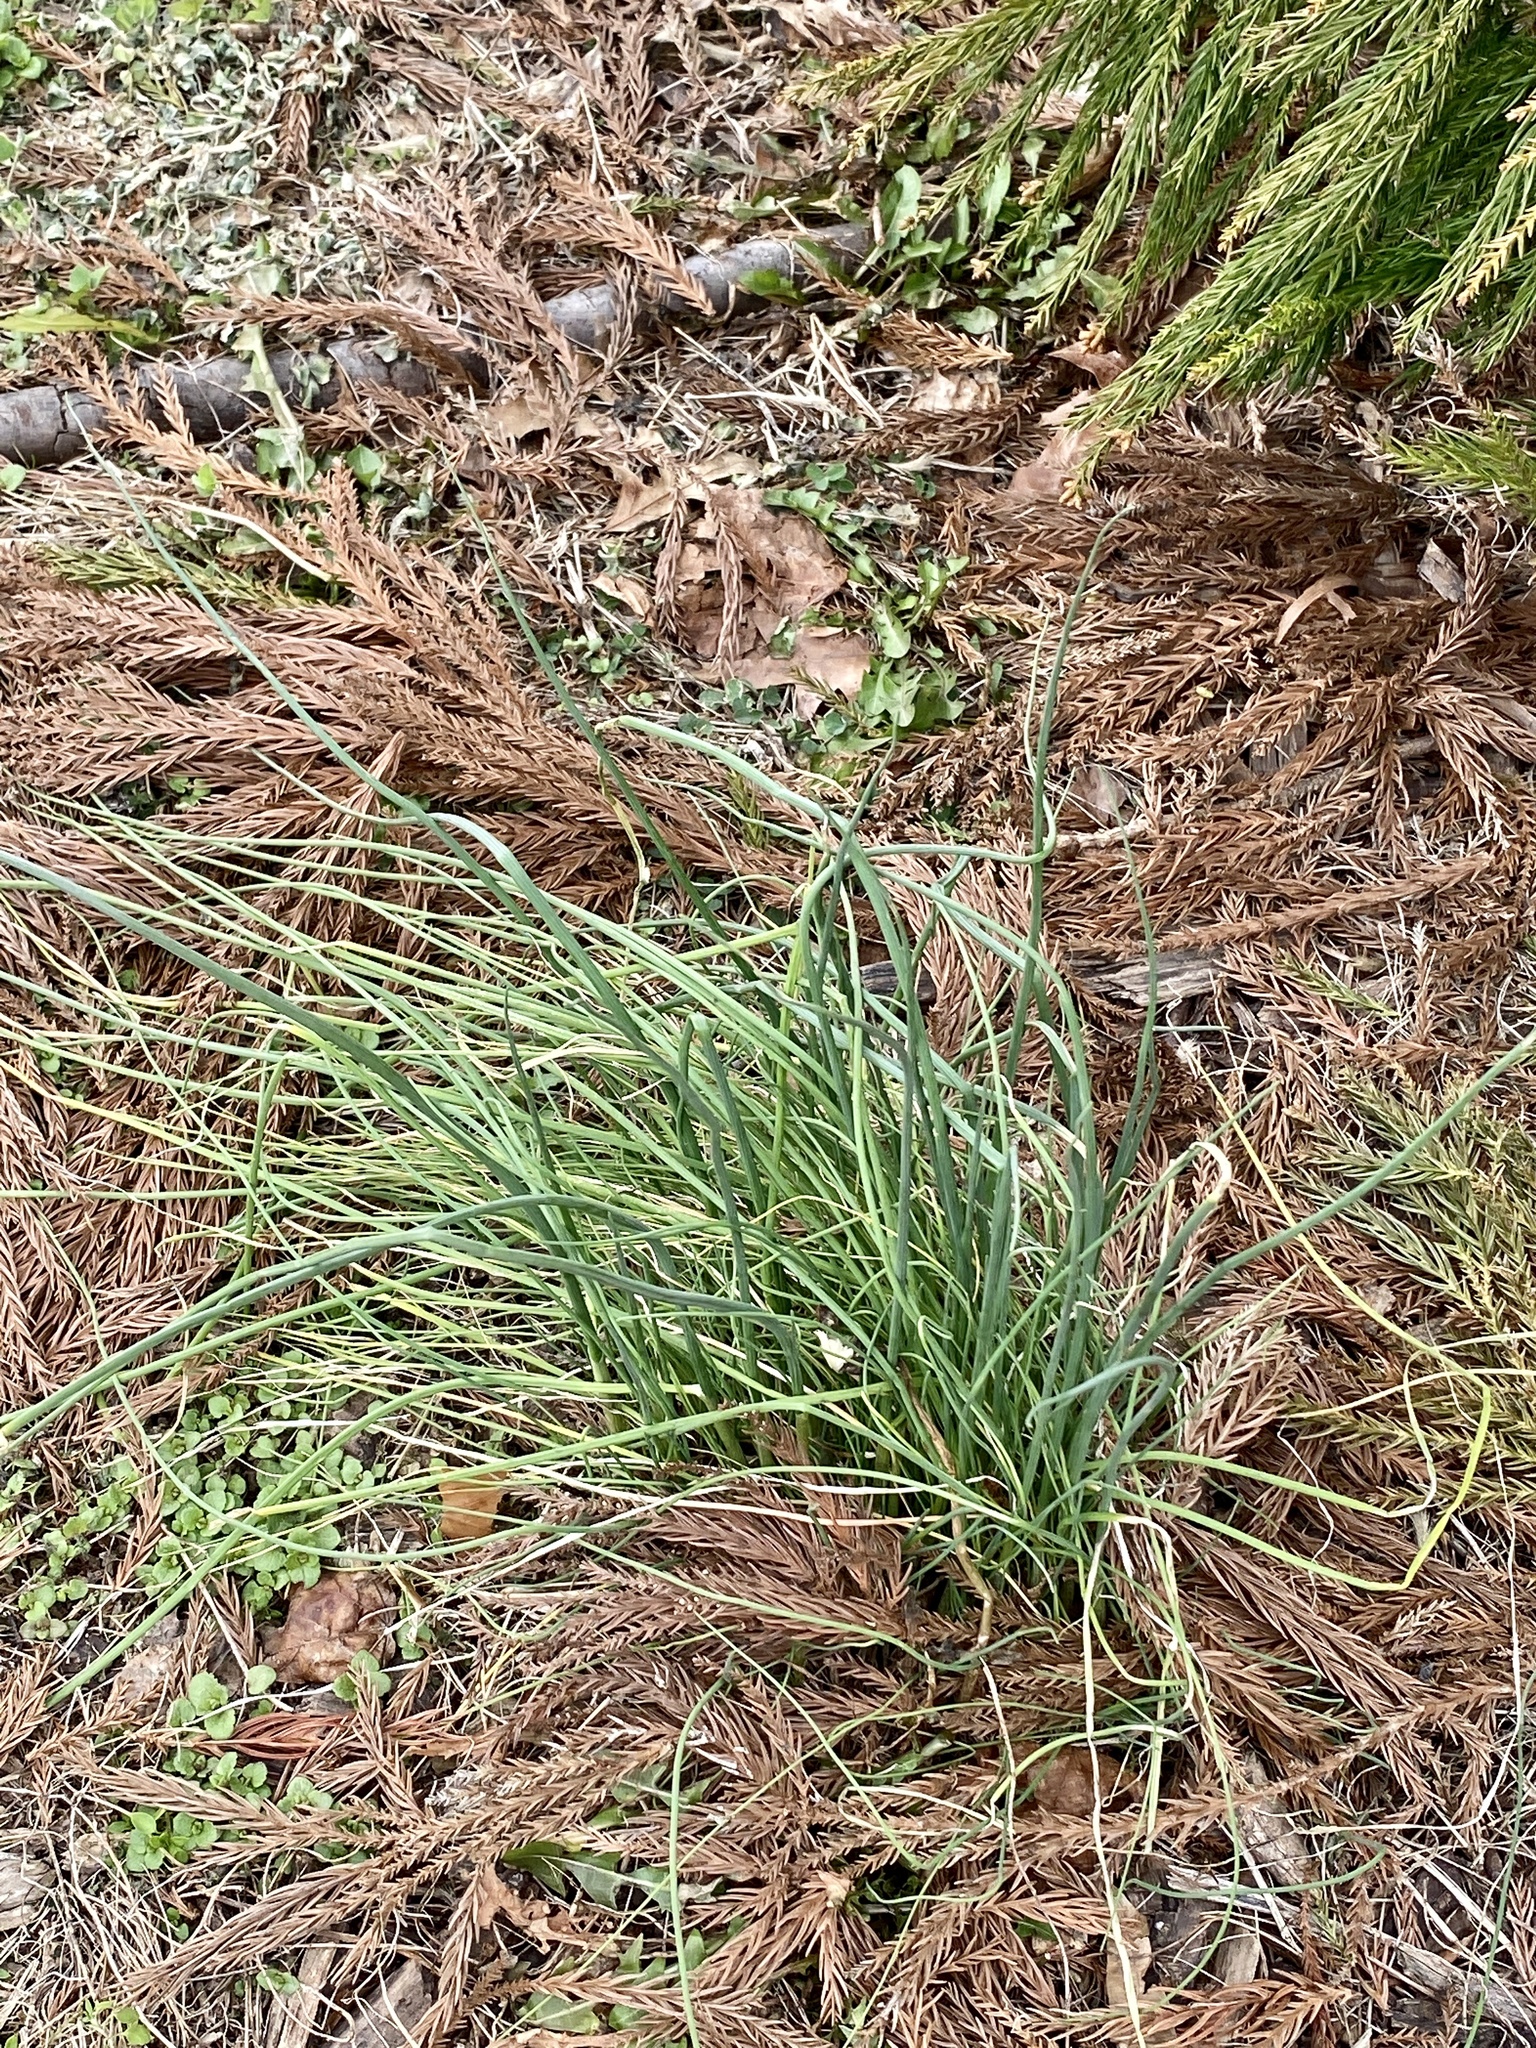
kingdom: Plantae
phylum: Tracheophyta
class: Liliopsida
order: Asparagales
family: Amaryllidaceae
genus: Allium
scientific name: Allium vineale
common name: Crow garlic
